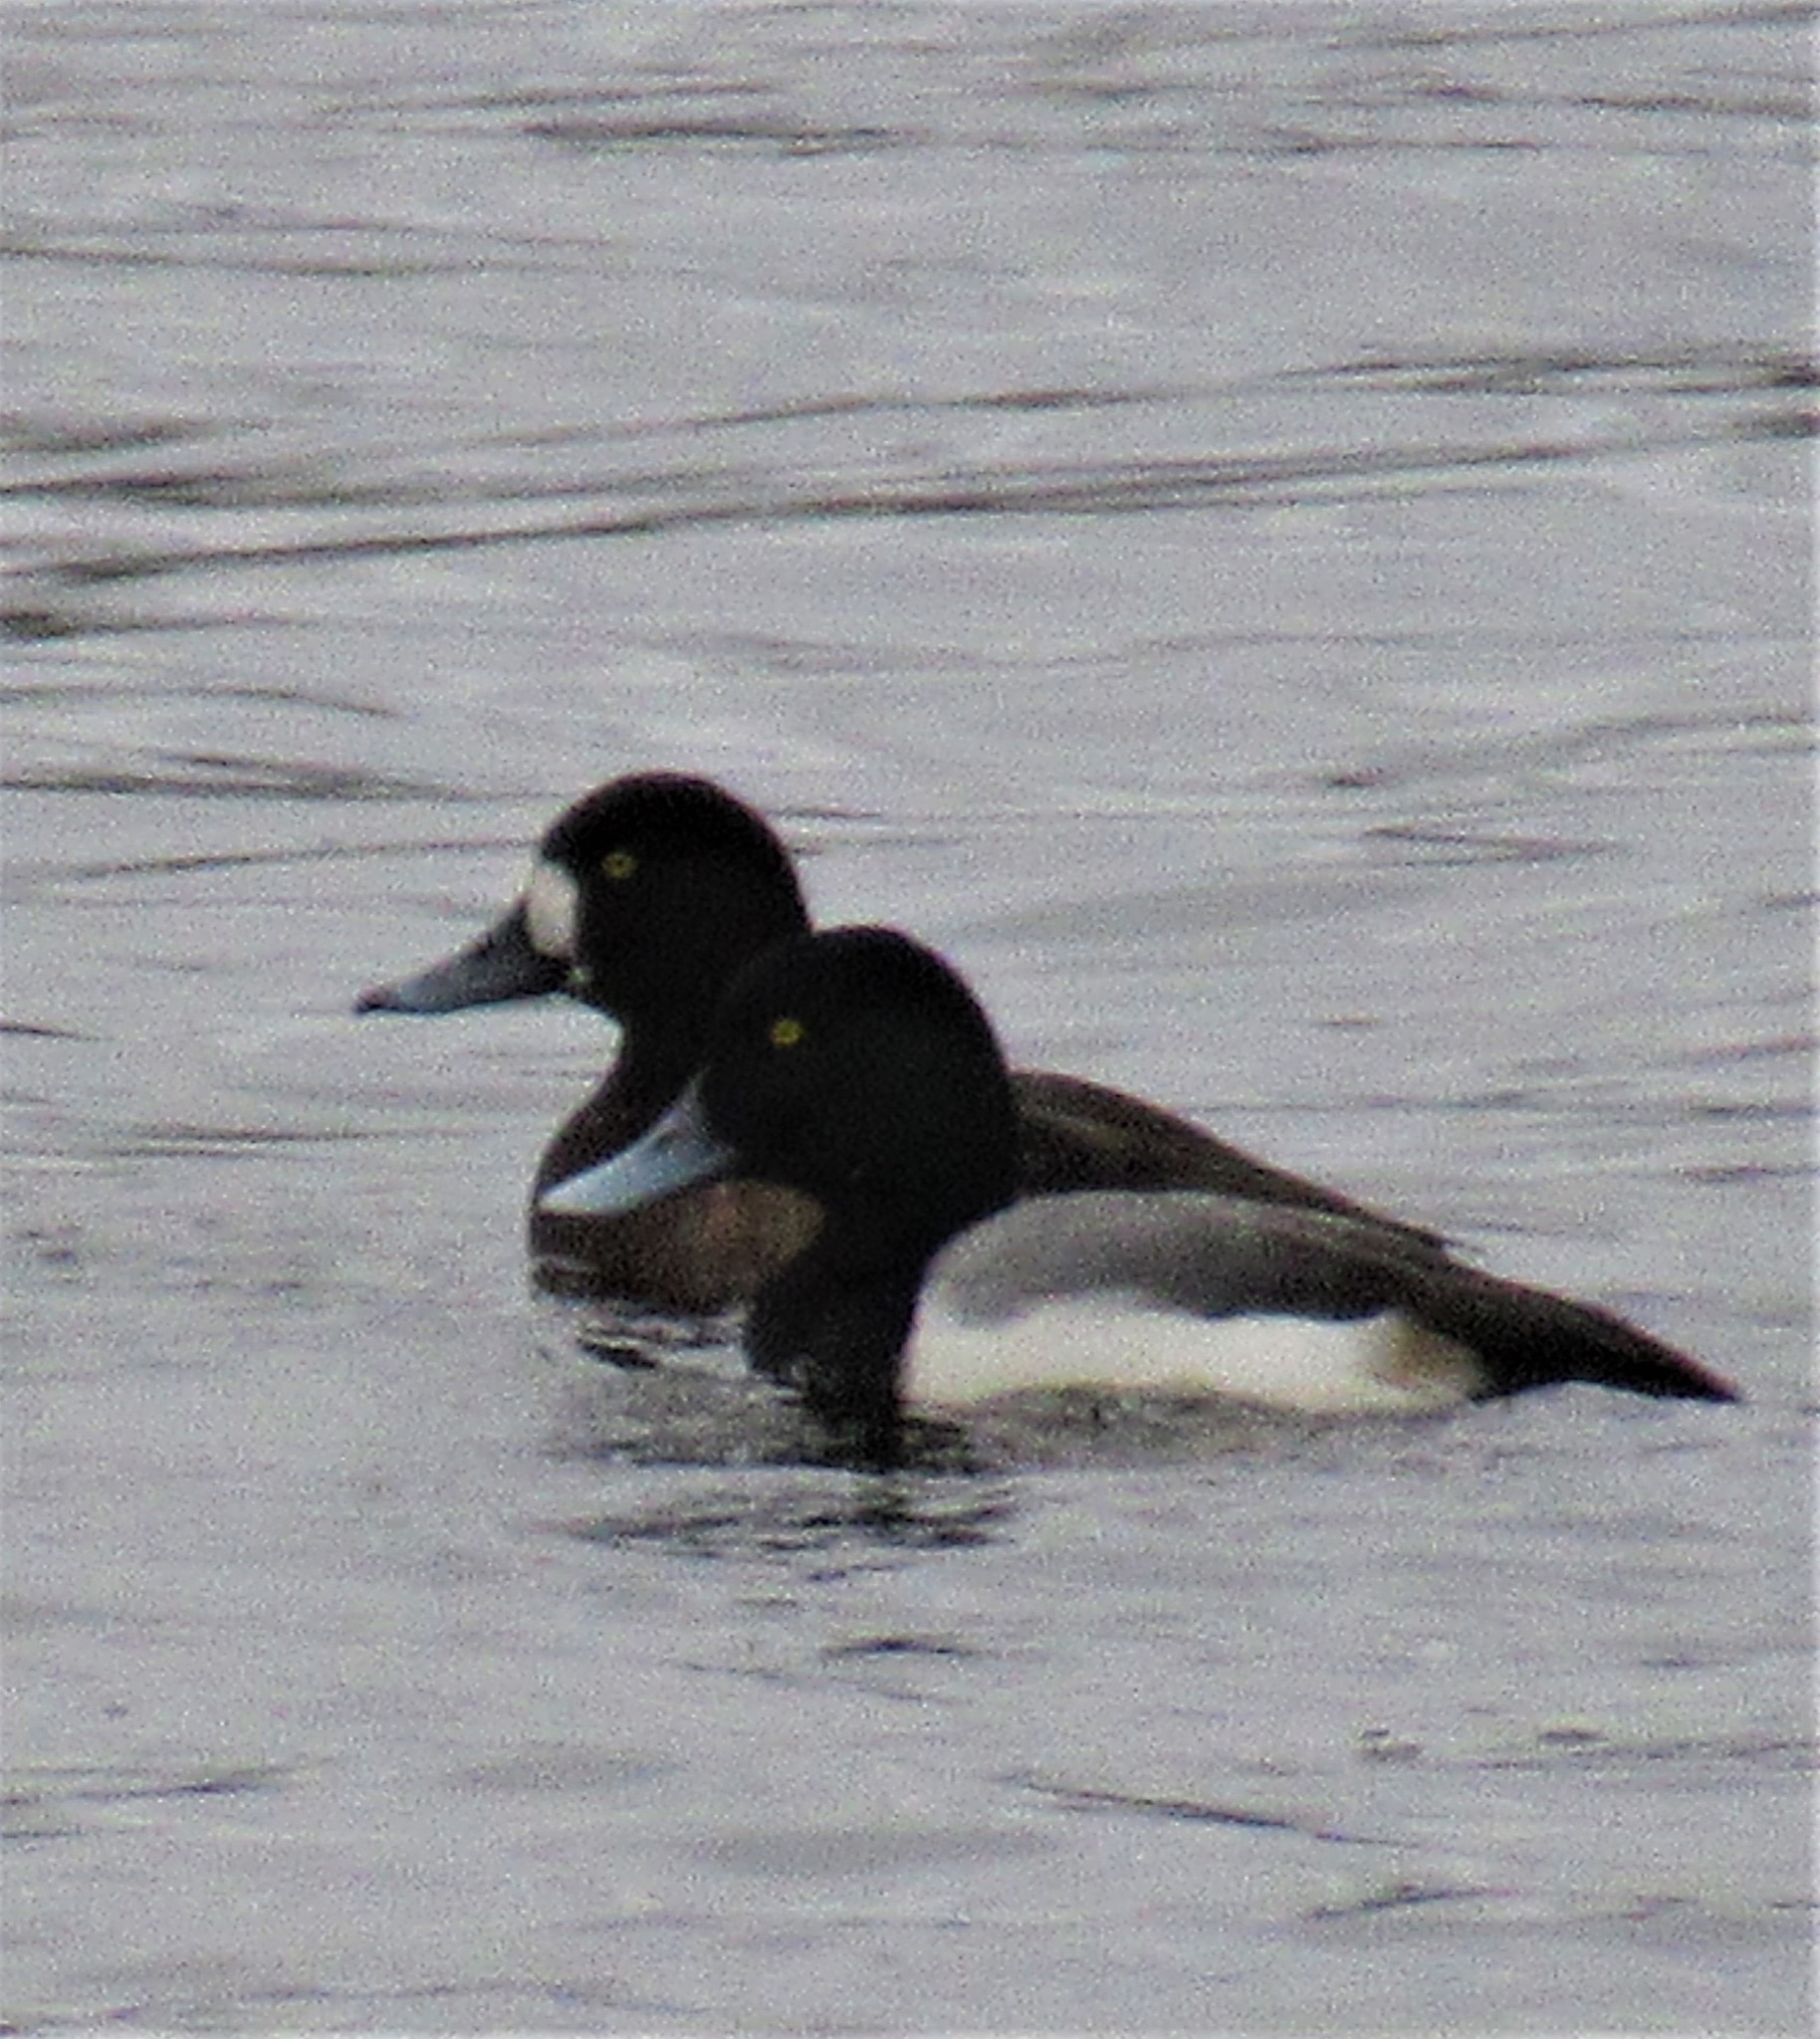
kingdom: Animalia
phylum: Chordata
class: Aves
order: Anseriformes
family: Anatidae
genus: Aythya
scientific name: Aythya marila
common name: Greater scaup
